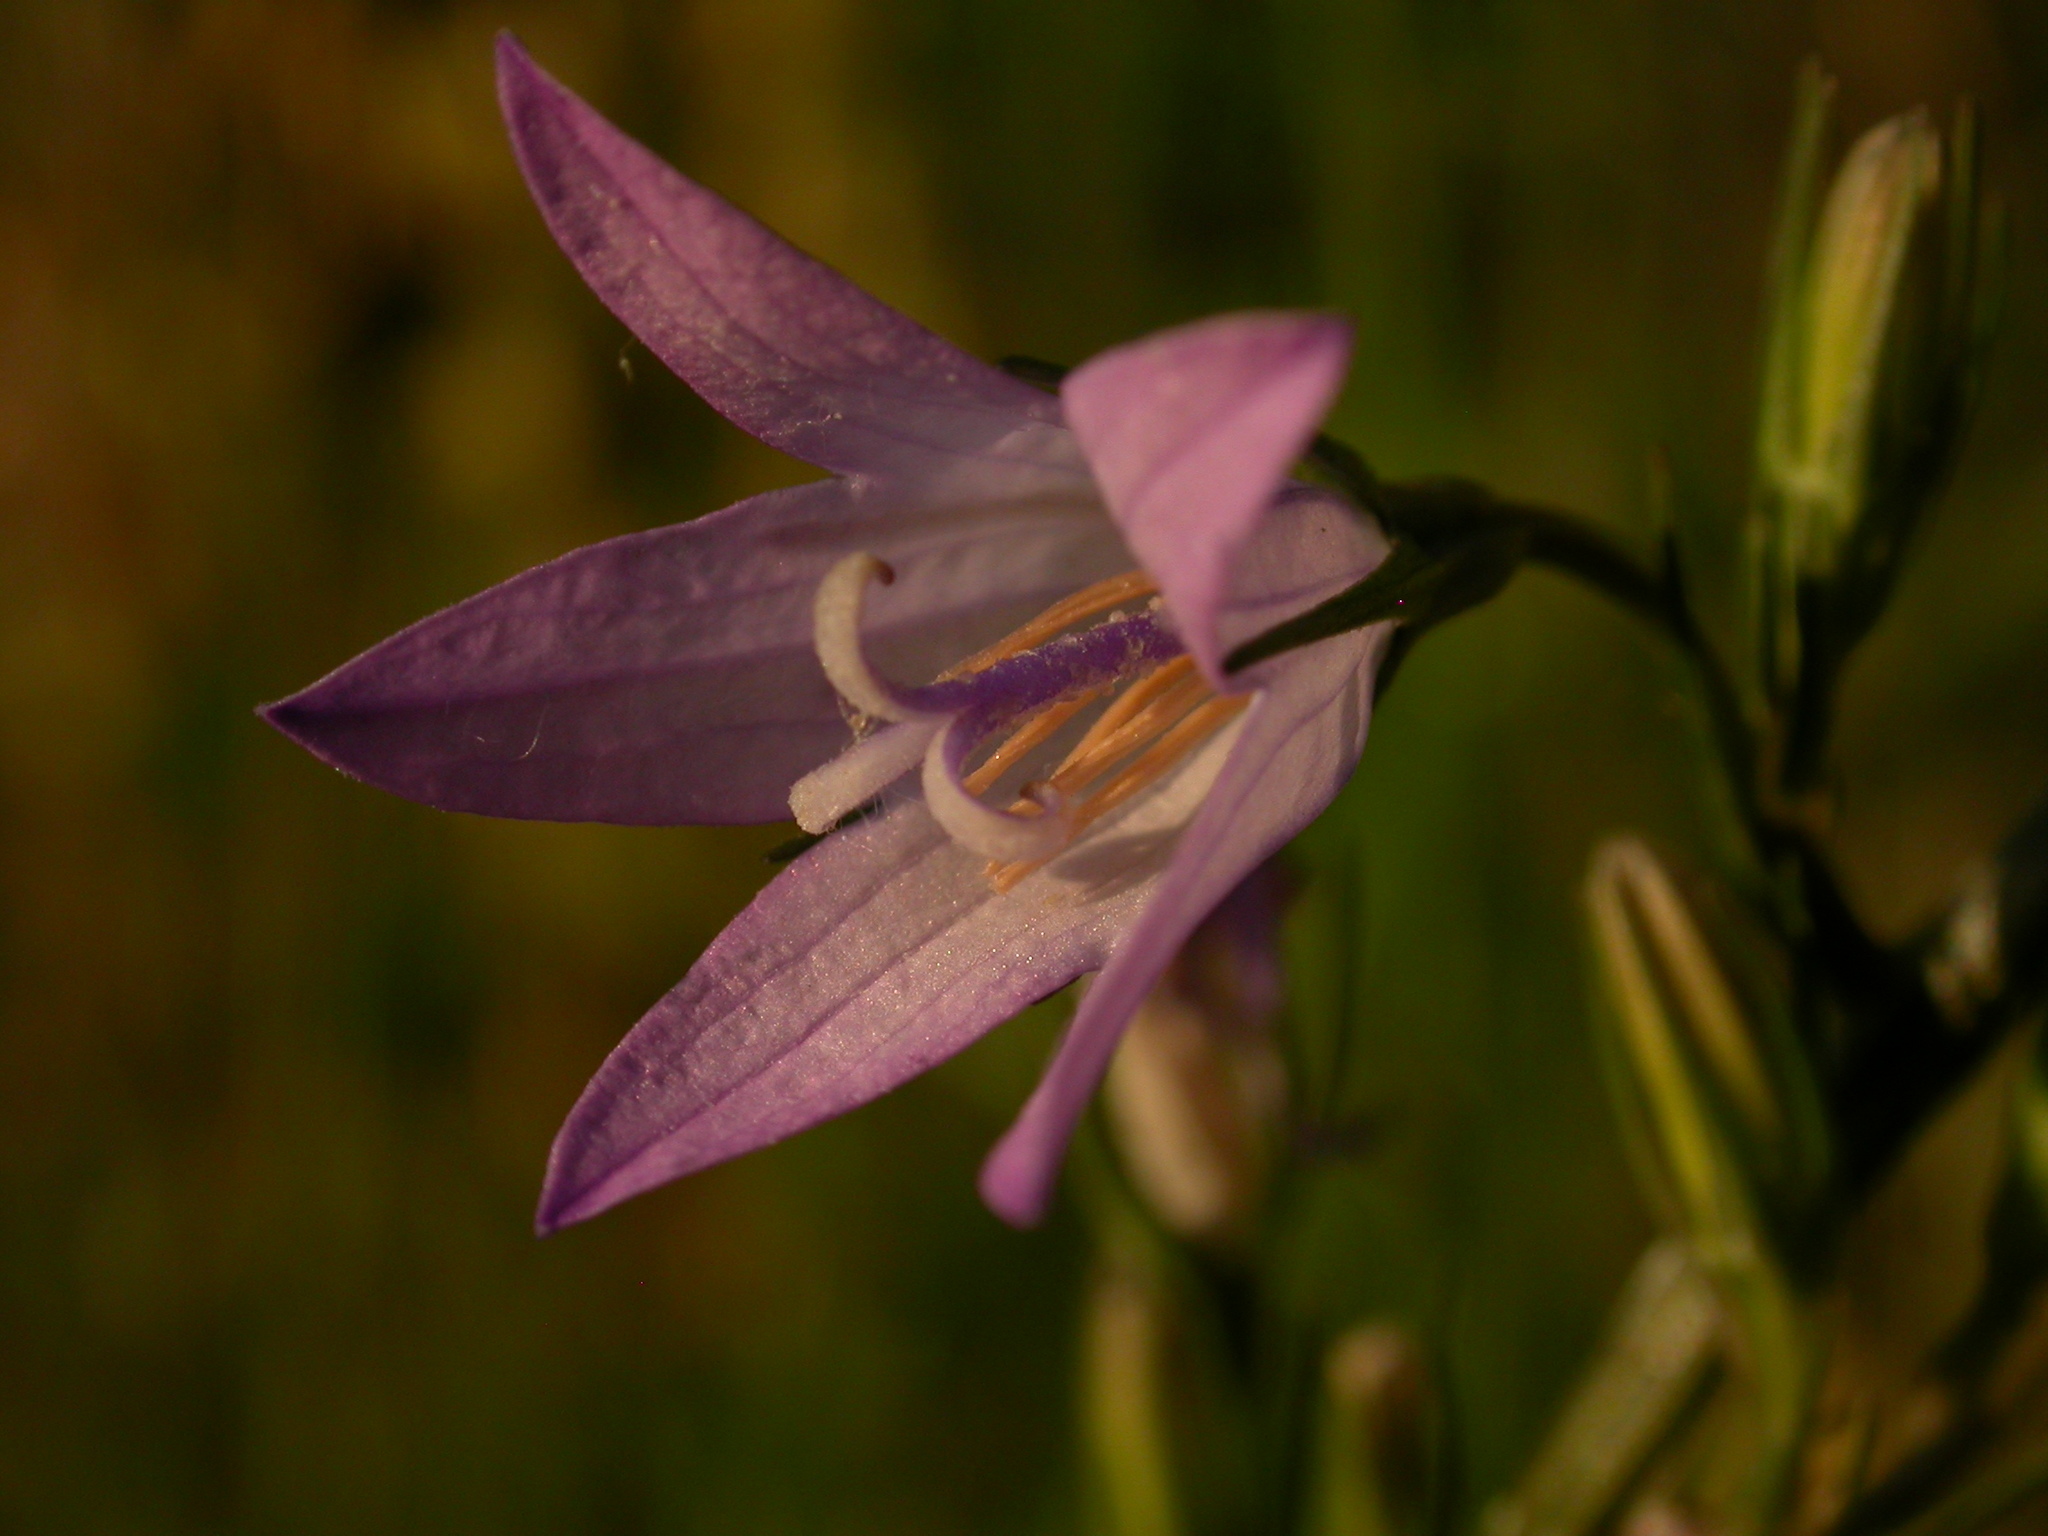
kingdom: Plantae
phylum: Tracheophyta
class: Magnoliopsida
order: Asterales
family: Campanulaceae
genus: Campanula
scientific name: Campanula rapunculus
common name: Rampion bellflower
